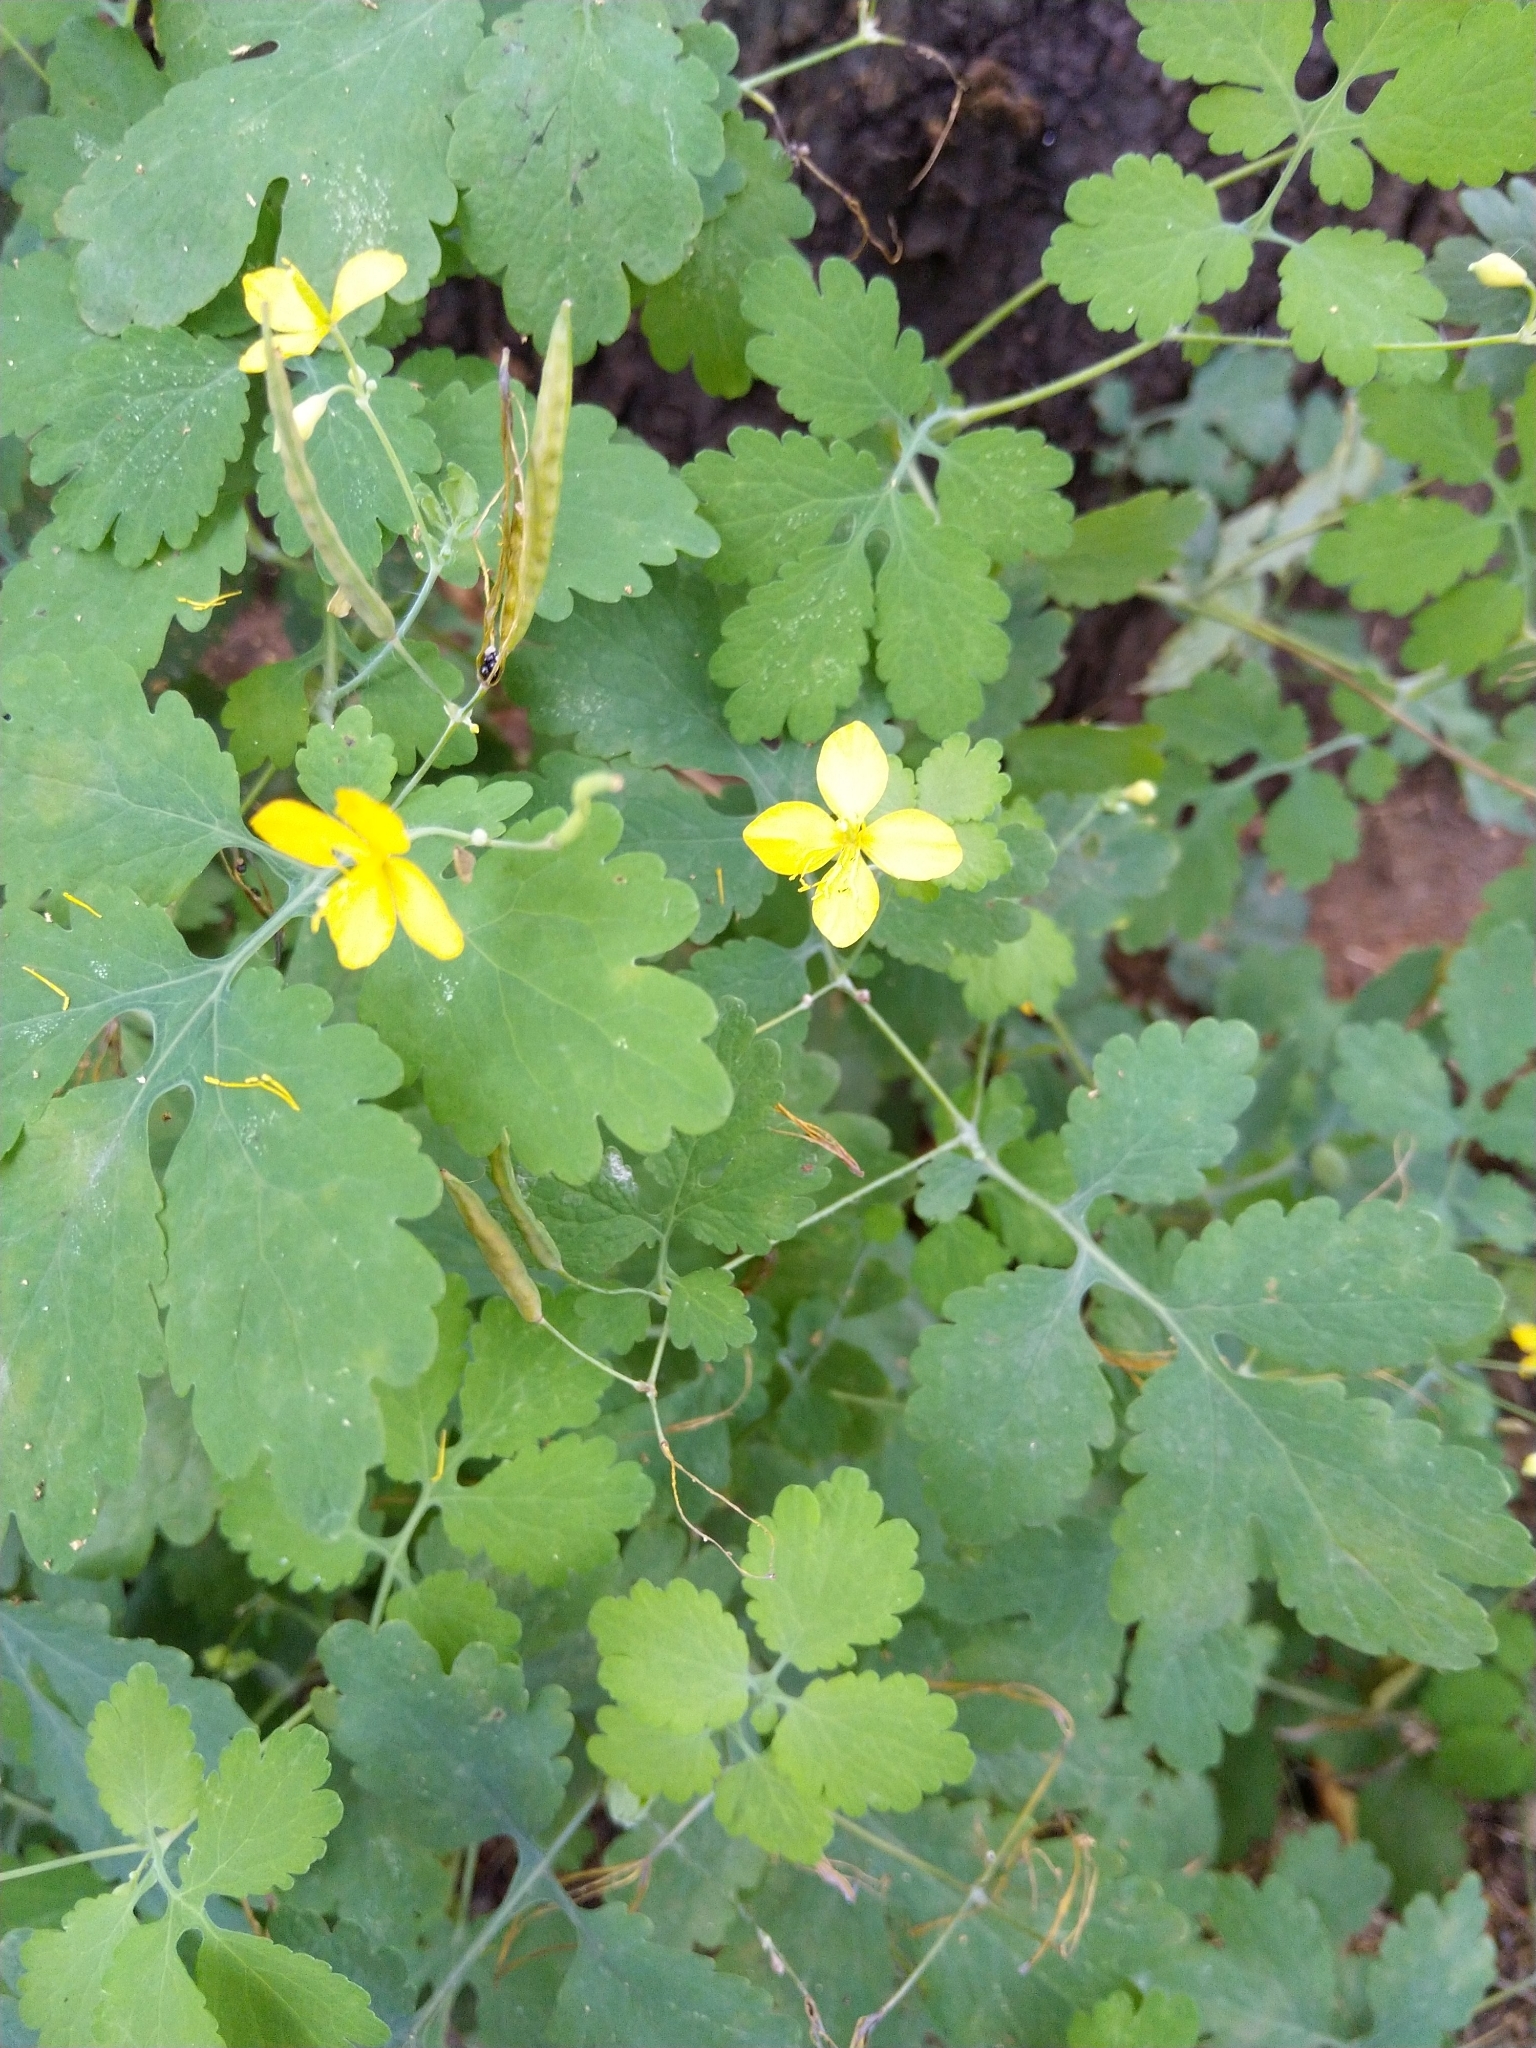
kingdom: Plantae
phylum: Tracheophyta
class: Magnoliopsida
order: Ranunculales
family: Papaveraceae
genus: Chelidonium
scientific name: Chelidonium majus
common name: Greater celandine
